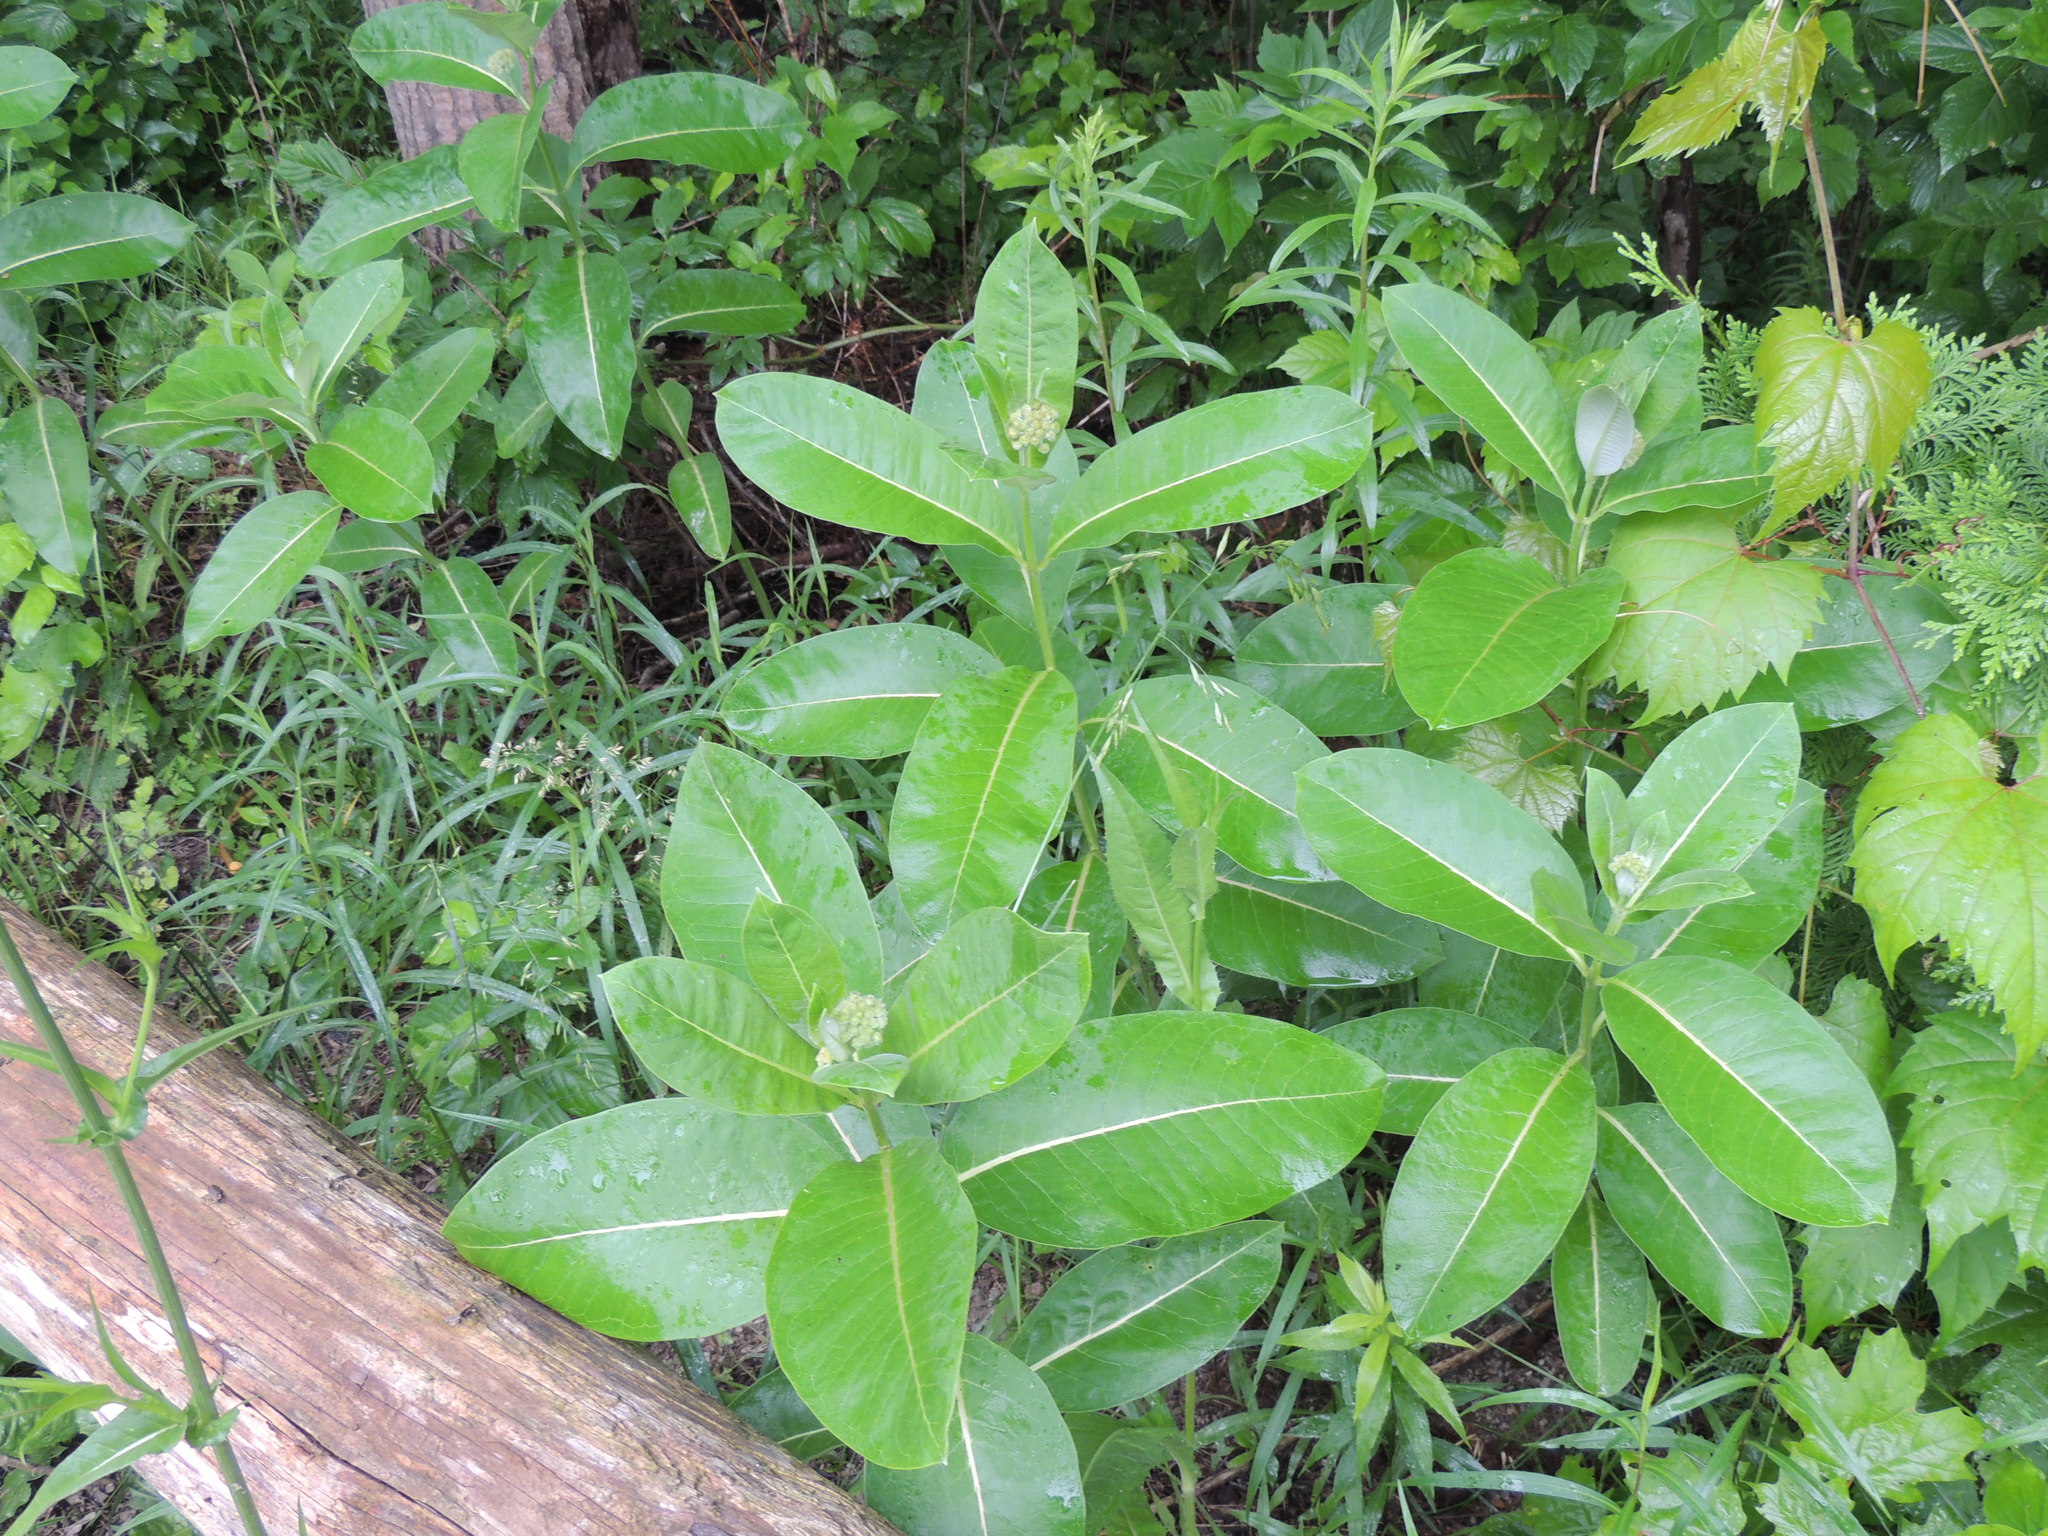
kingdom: Plantae
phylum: Tracheophyta
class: Magnoliopsida
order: Gentianales
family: Apocynaceae
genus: Asclepias
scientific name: Asclepias syriaca
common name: Common milkweed
